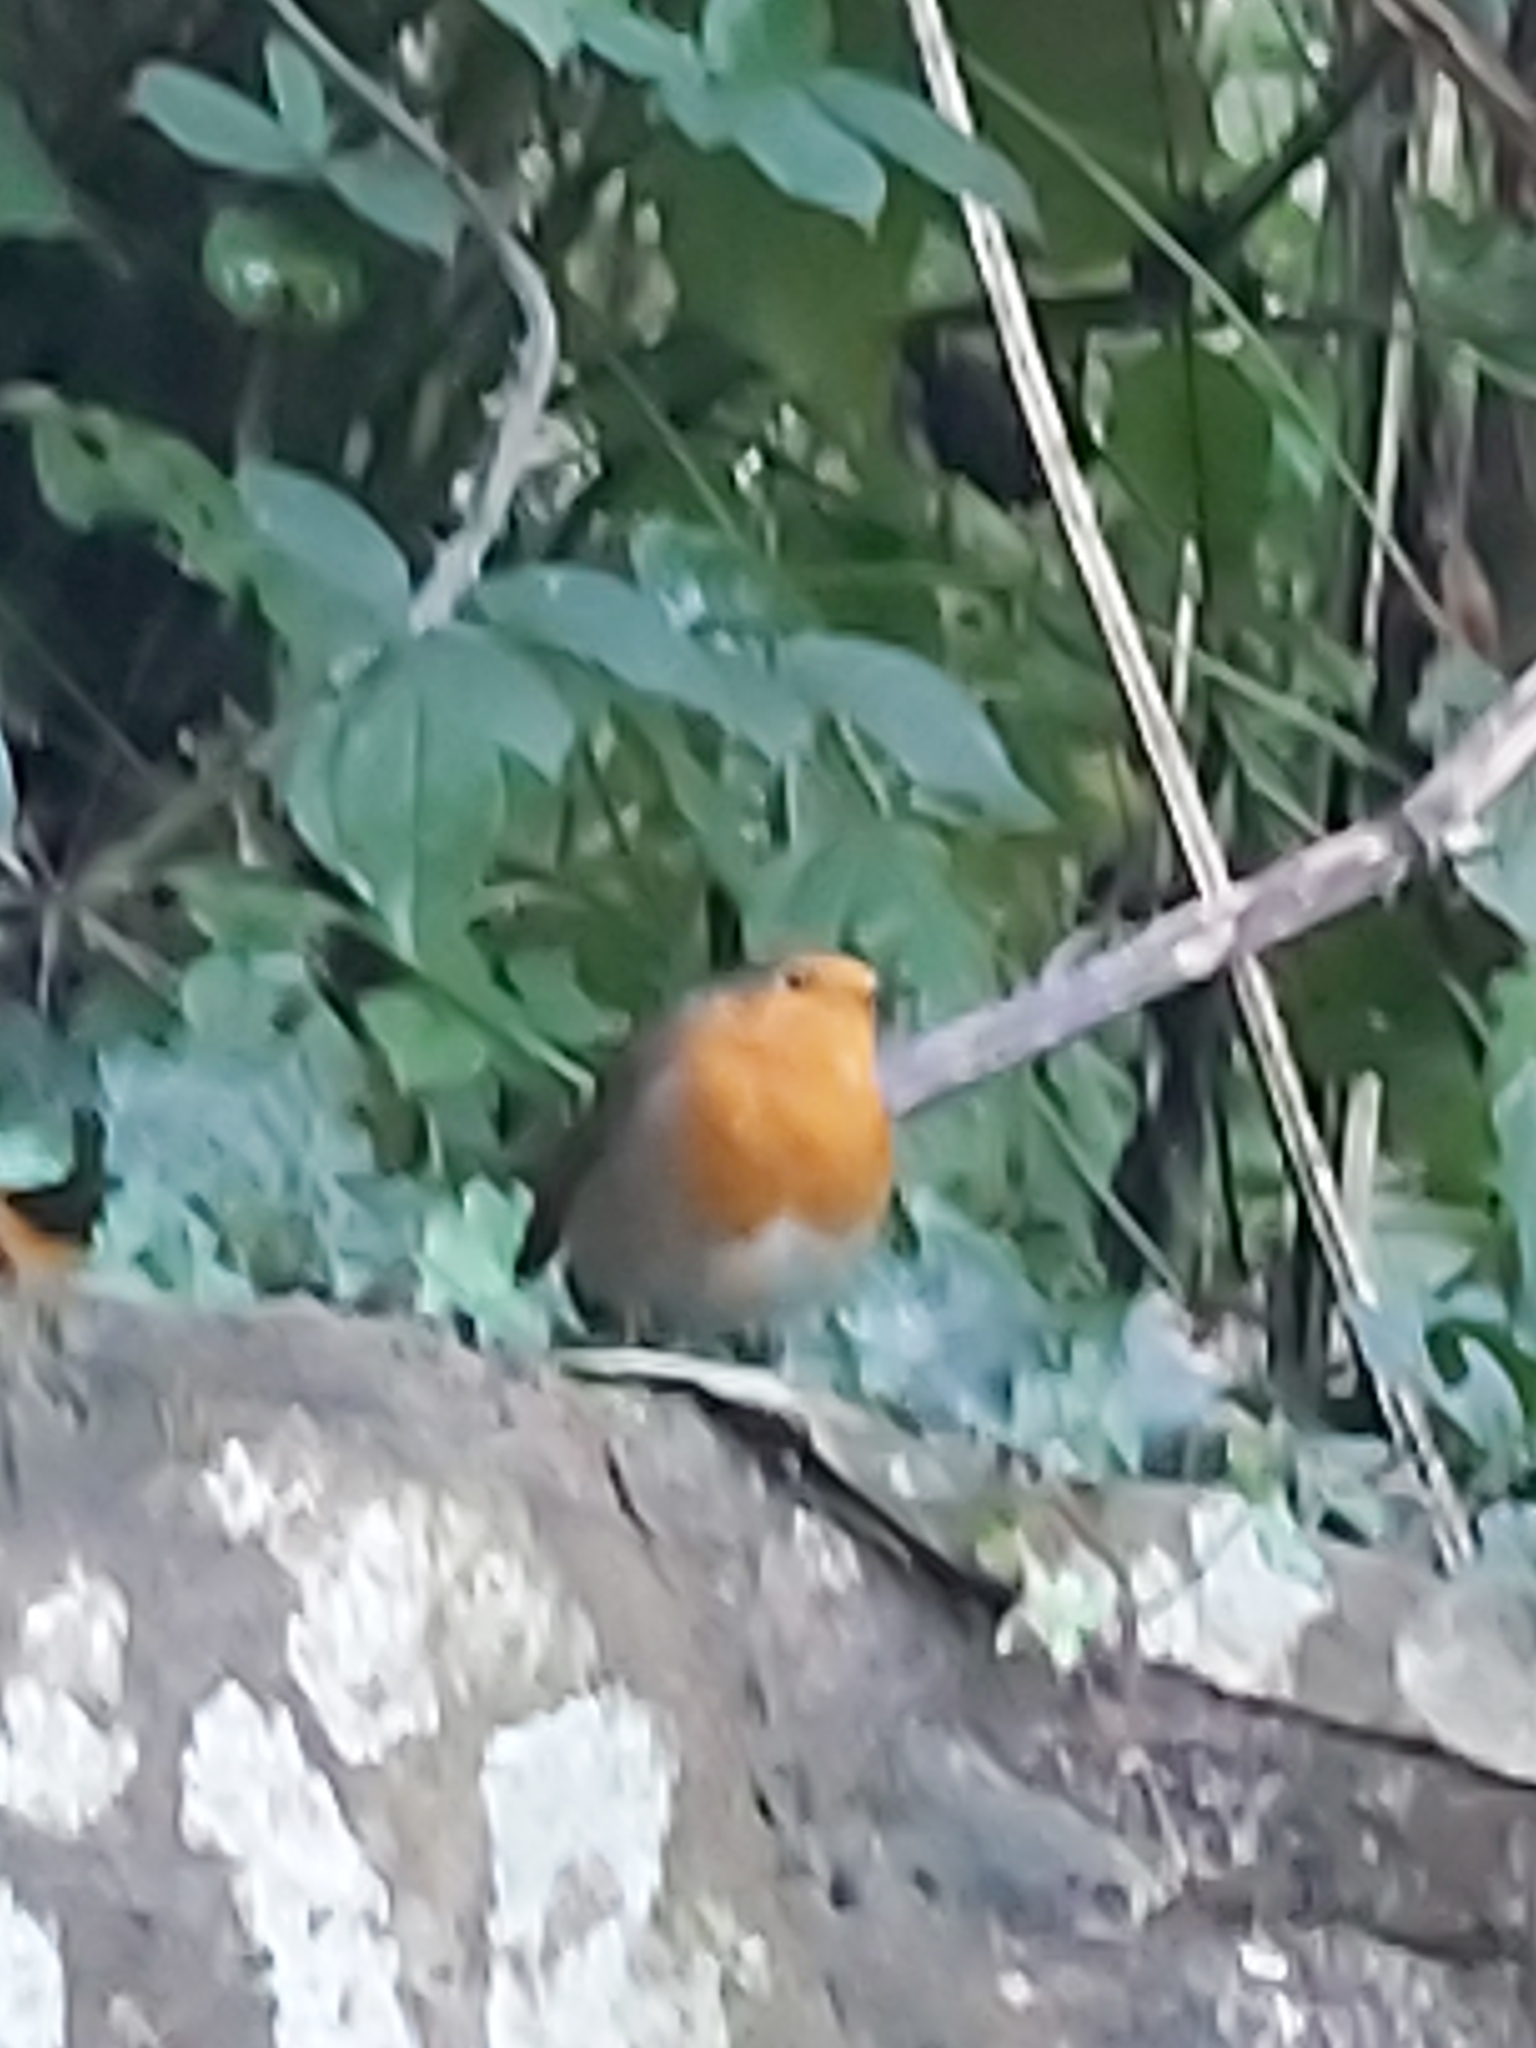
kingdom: Animalia
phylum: Chordata
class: Aves
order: Passeriformes
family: Muscicapidae
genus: Erithacus
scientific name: Erithacus rubecula
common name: European robin
